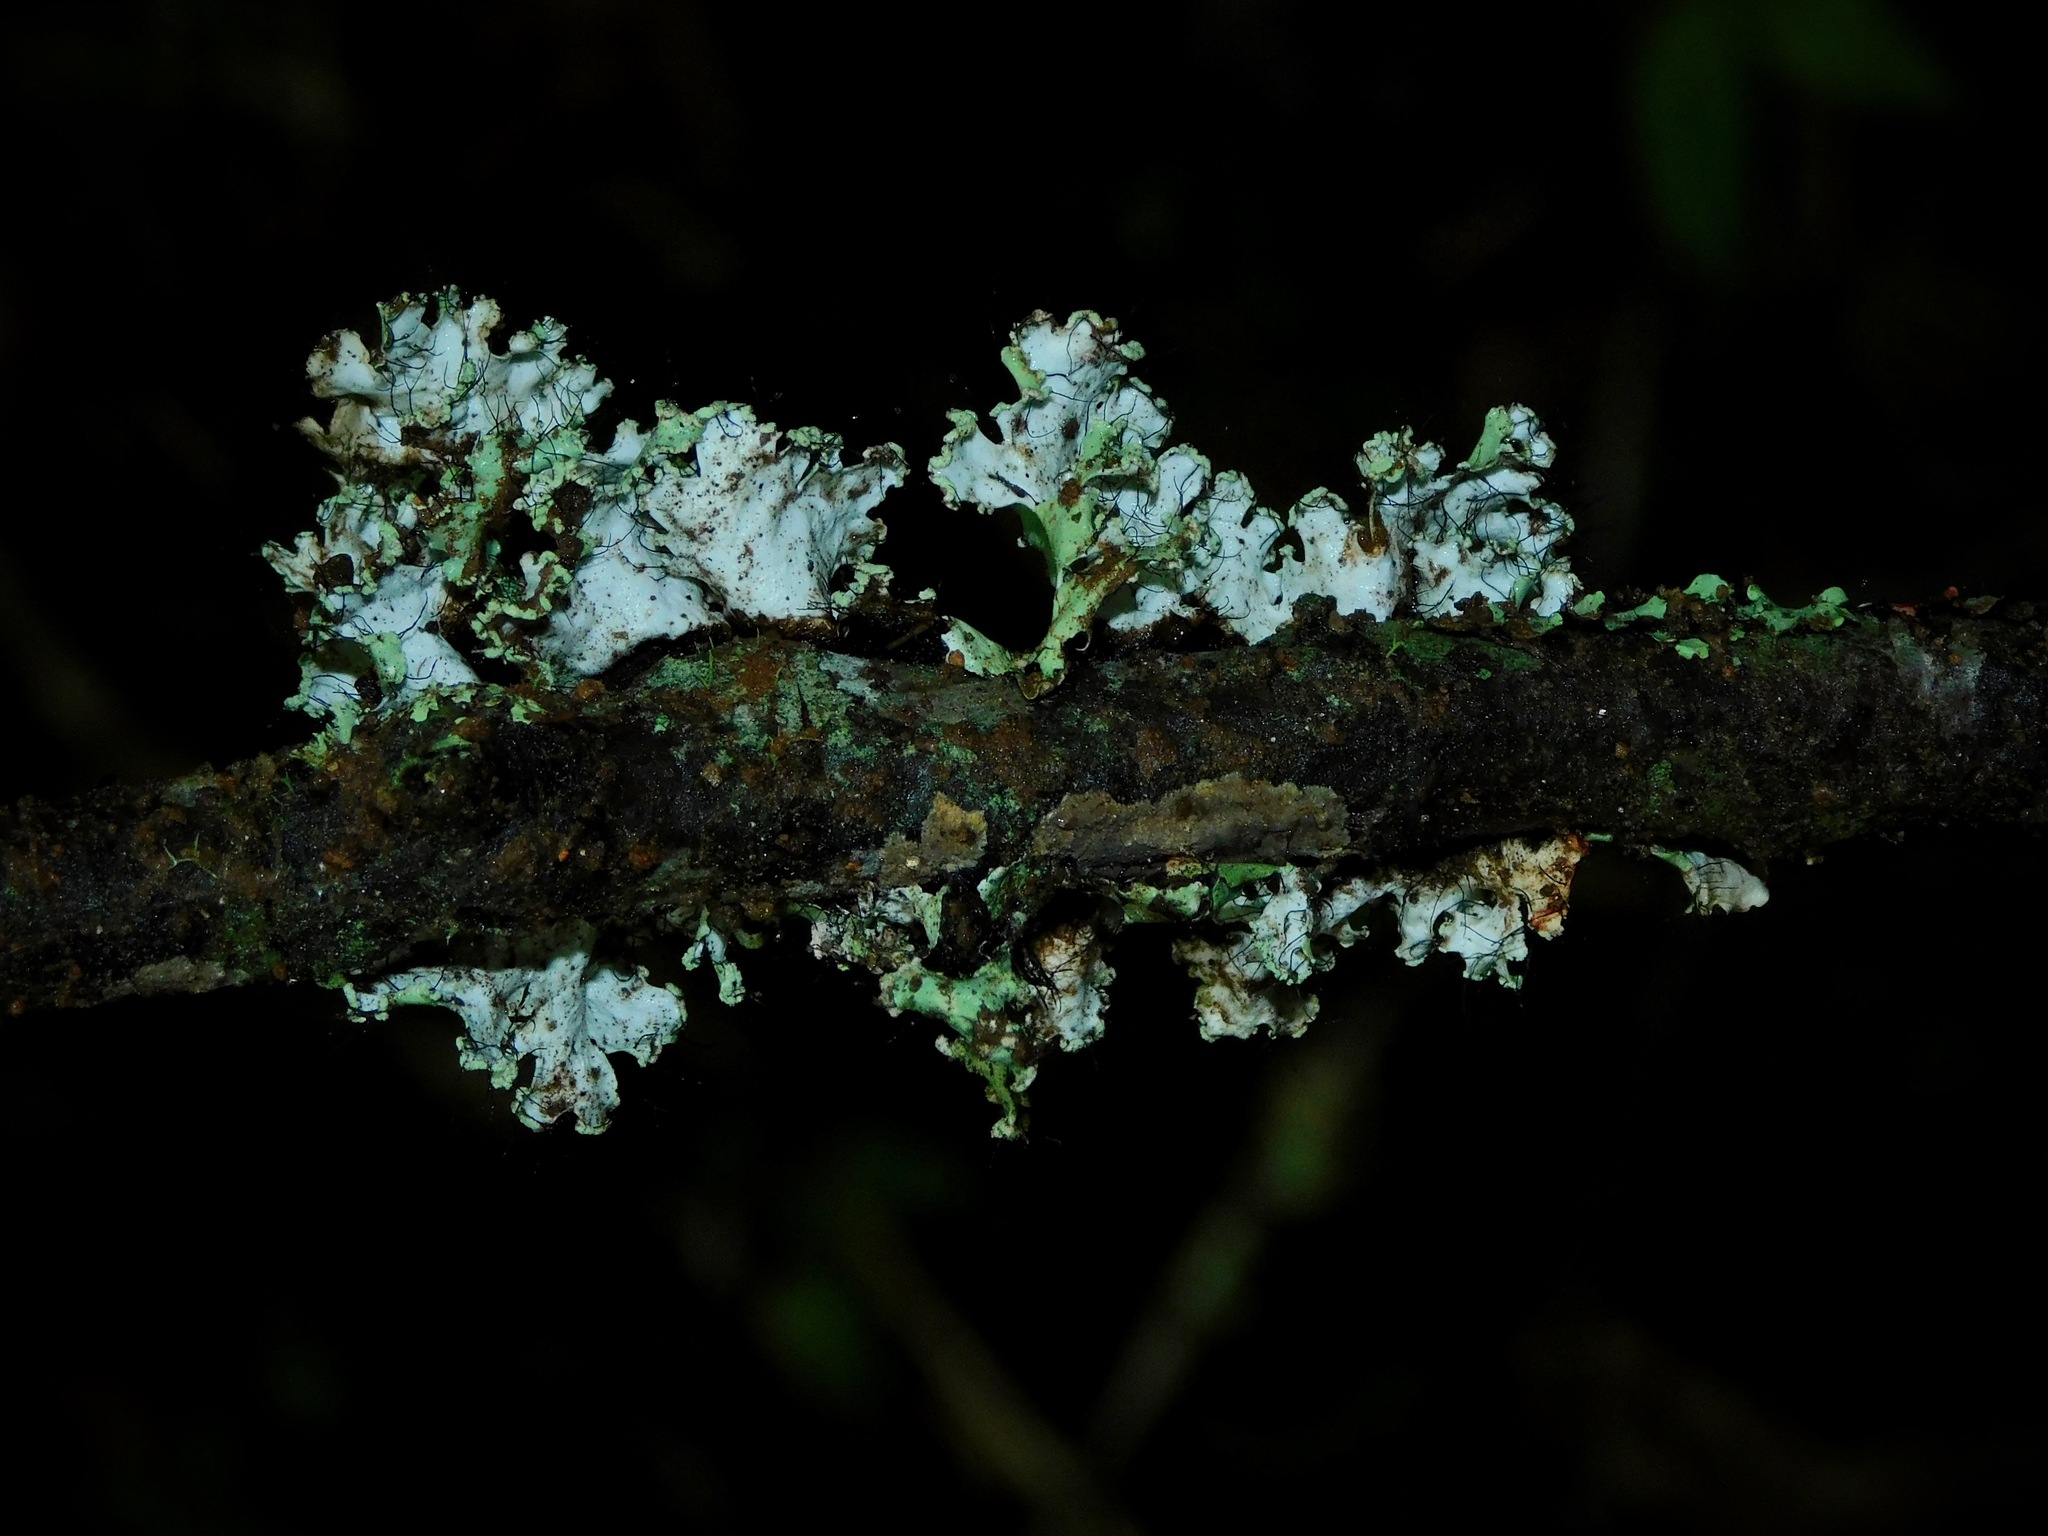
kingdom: Fungi
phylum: Ascomycota
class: Lecanoromycetes
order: Lecanorales
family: Parmeliaceae
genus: Parmotrema
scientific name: Parmotrema hypotropum
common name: Powdered ruffle lichen
